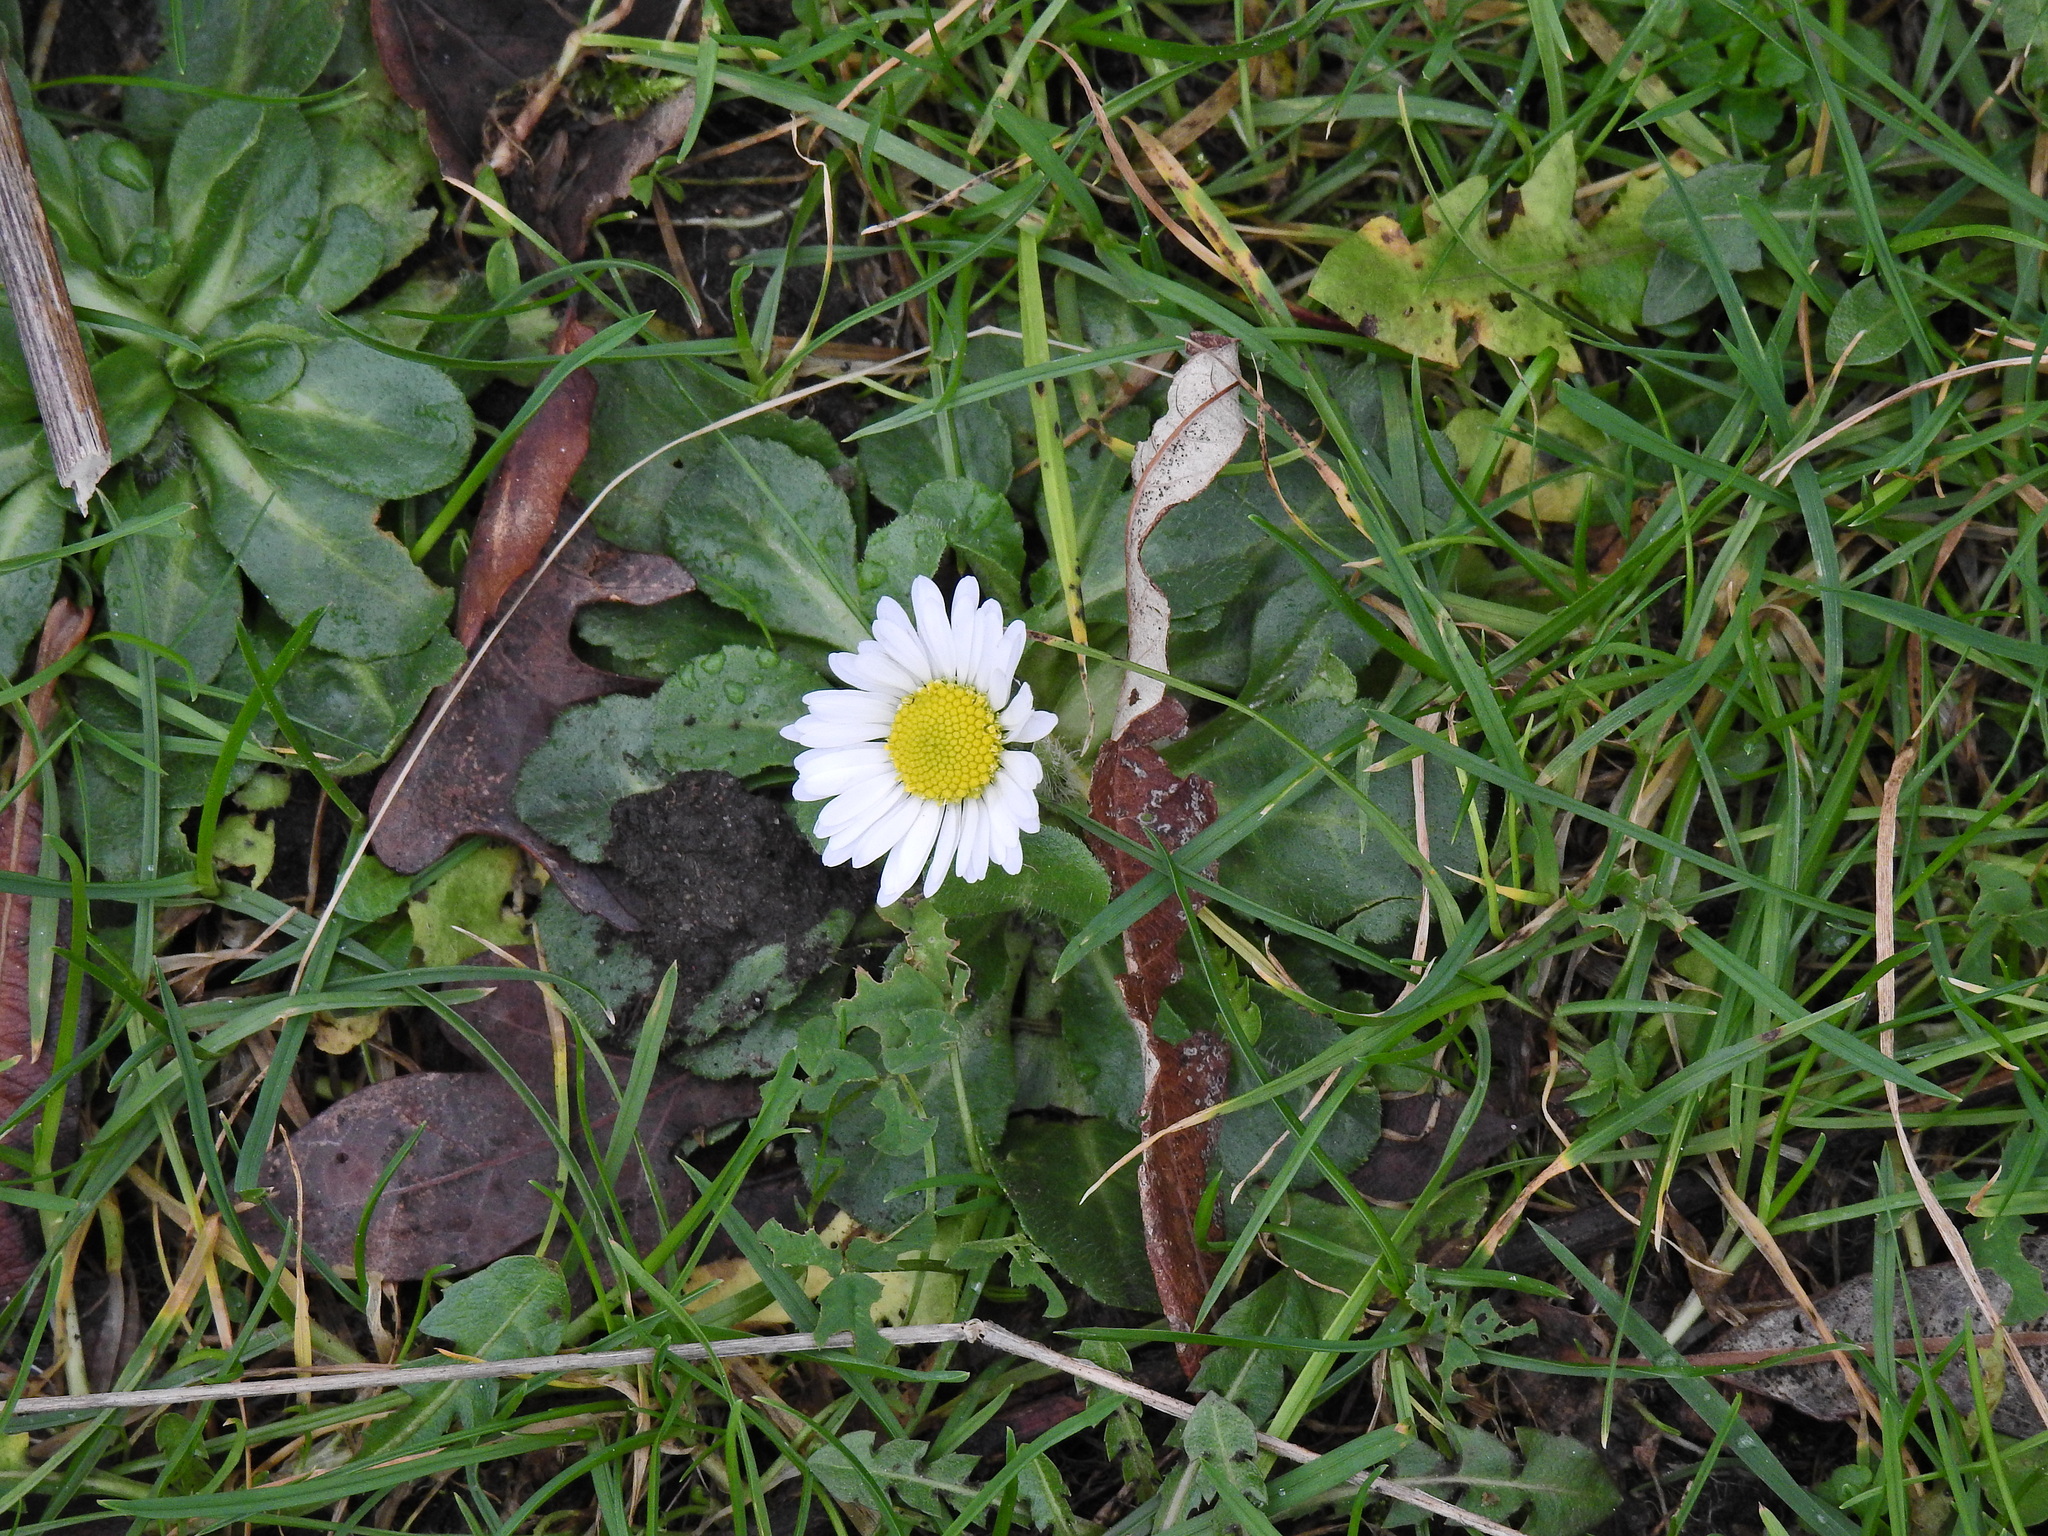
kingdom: Plantae
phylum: Tracheophyta
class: Magnoliopsida
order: Asterales
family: Asteraceae
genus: Bellis
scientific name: Bellis perennis
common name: Lawndaisy
